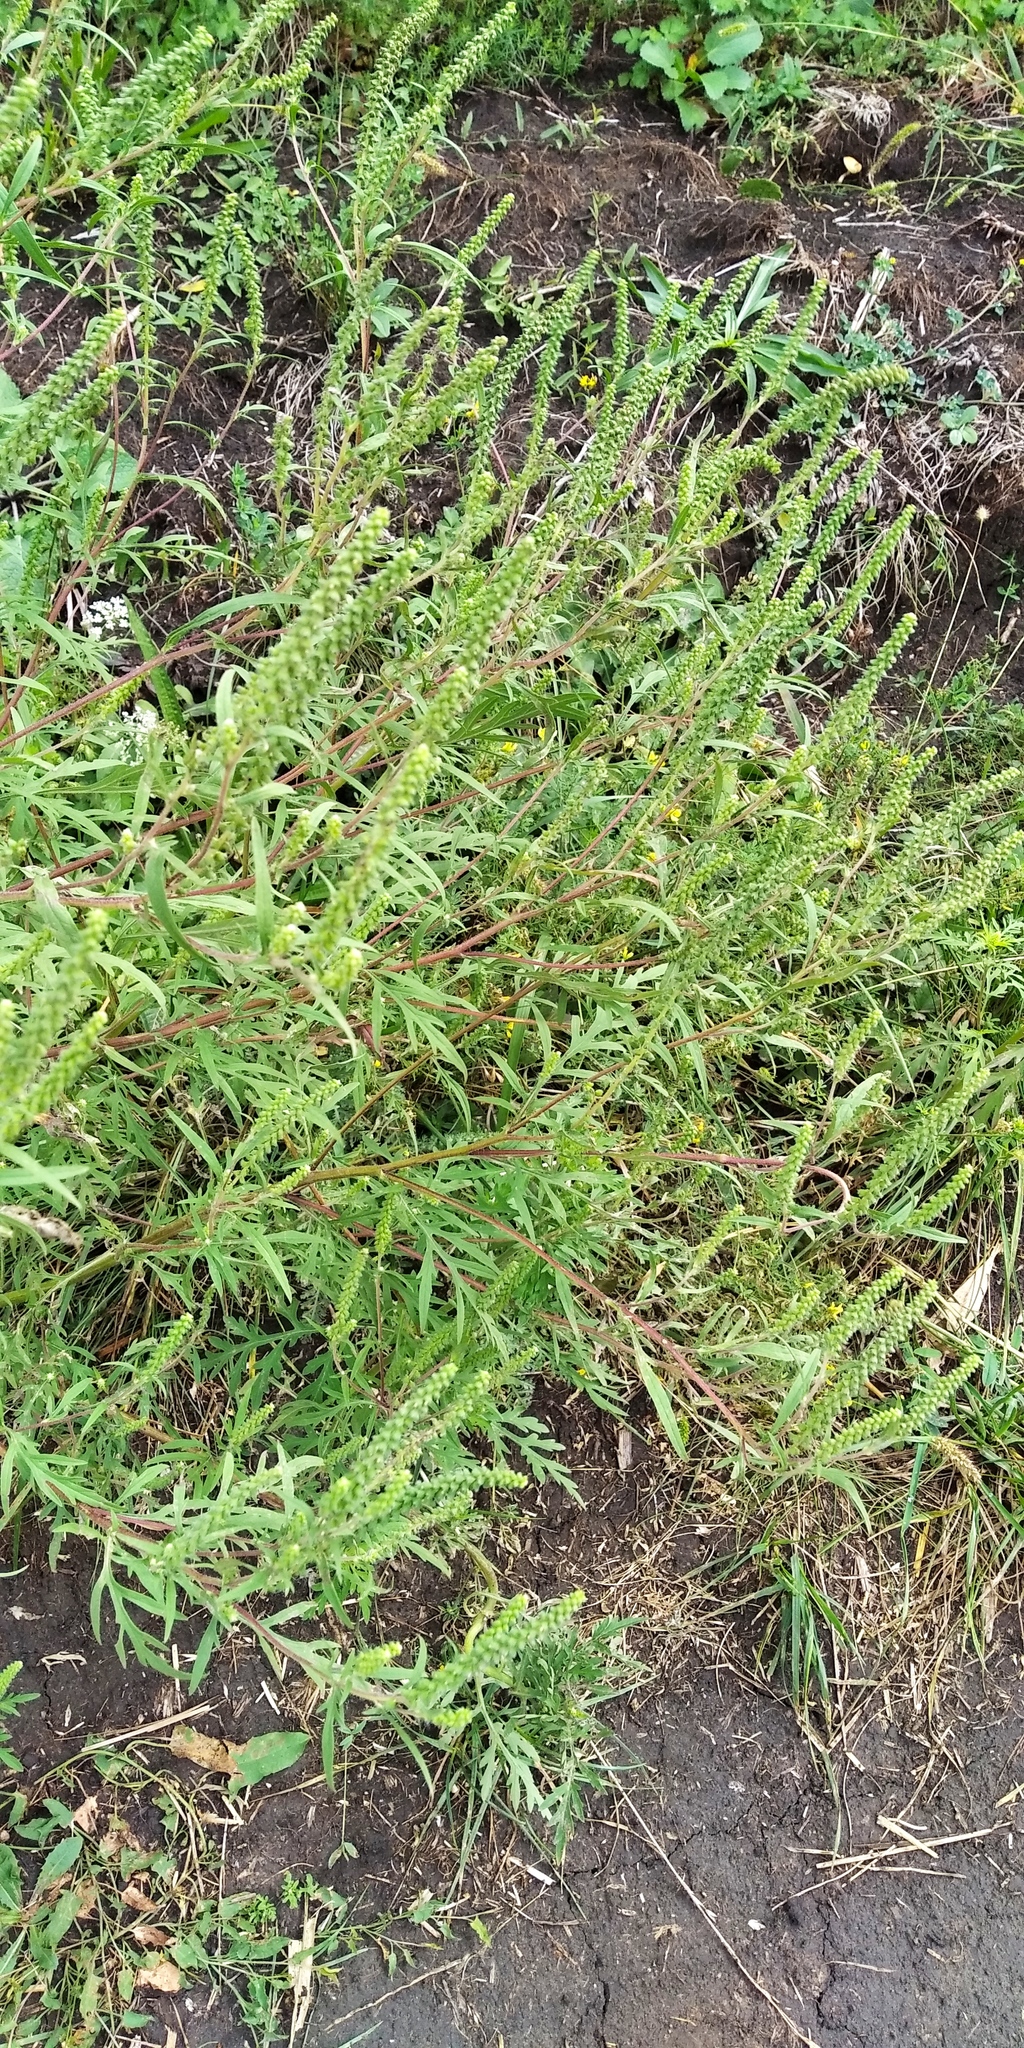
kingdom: Plantae
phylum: Tracheophyta
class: Magnoliopsida
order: Asterales
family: Asteraceae
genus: Ambrosia
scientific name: Ambrosia artemisiifolia
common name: Annual ragweed
